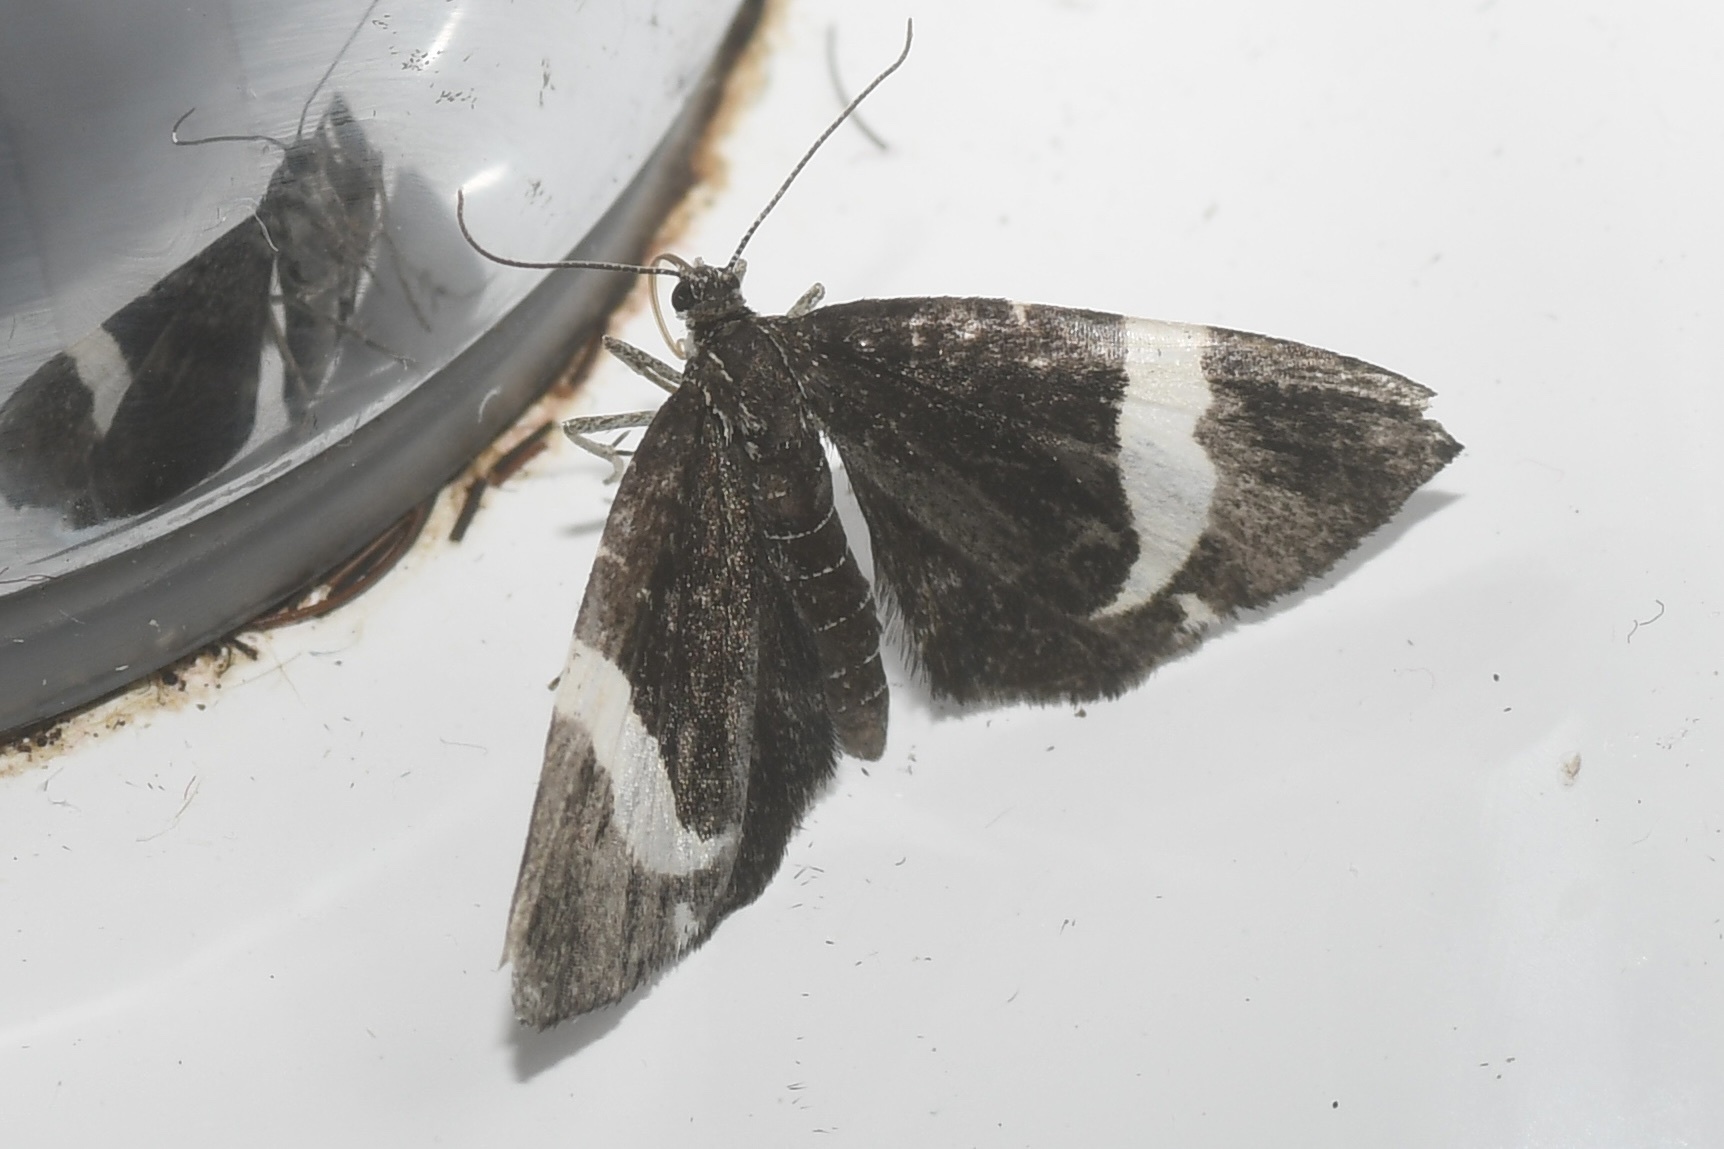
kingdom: Animalia
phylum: Arthropoda
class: Insecta
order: Lepidoptera
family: Geometridae
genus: Trichodezia
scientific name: Trichodezia albovittata
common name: White striped black
